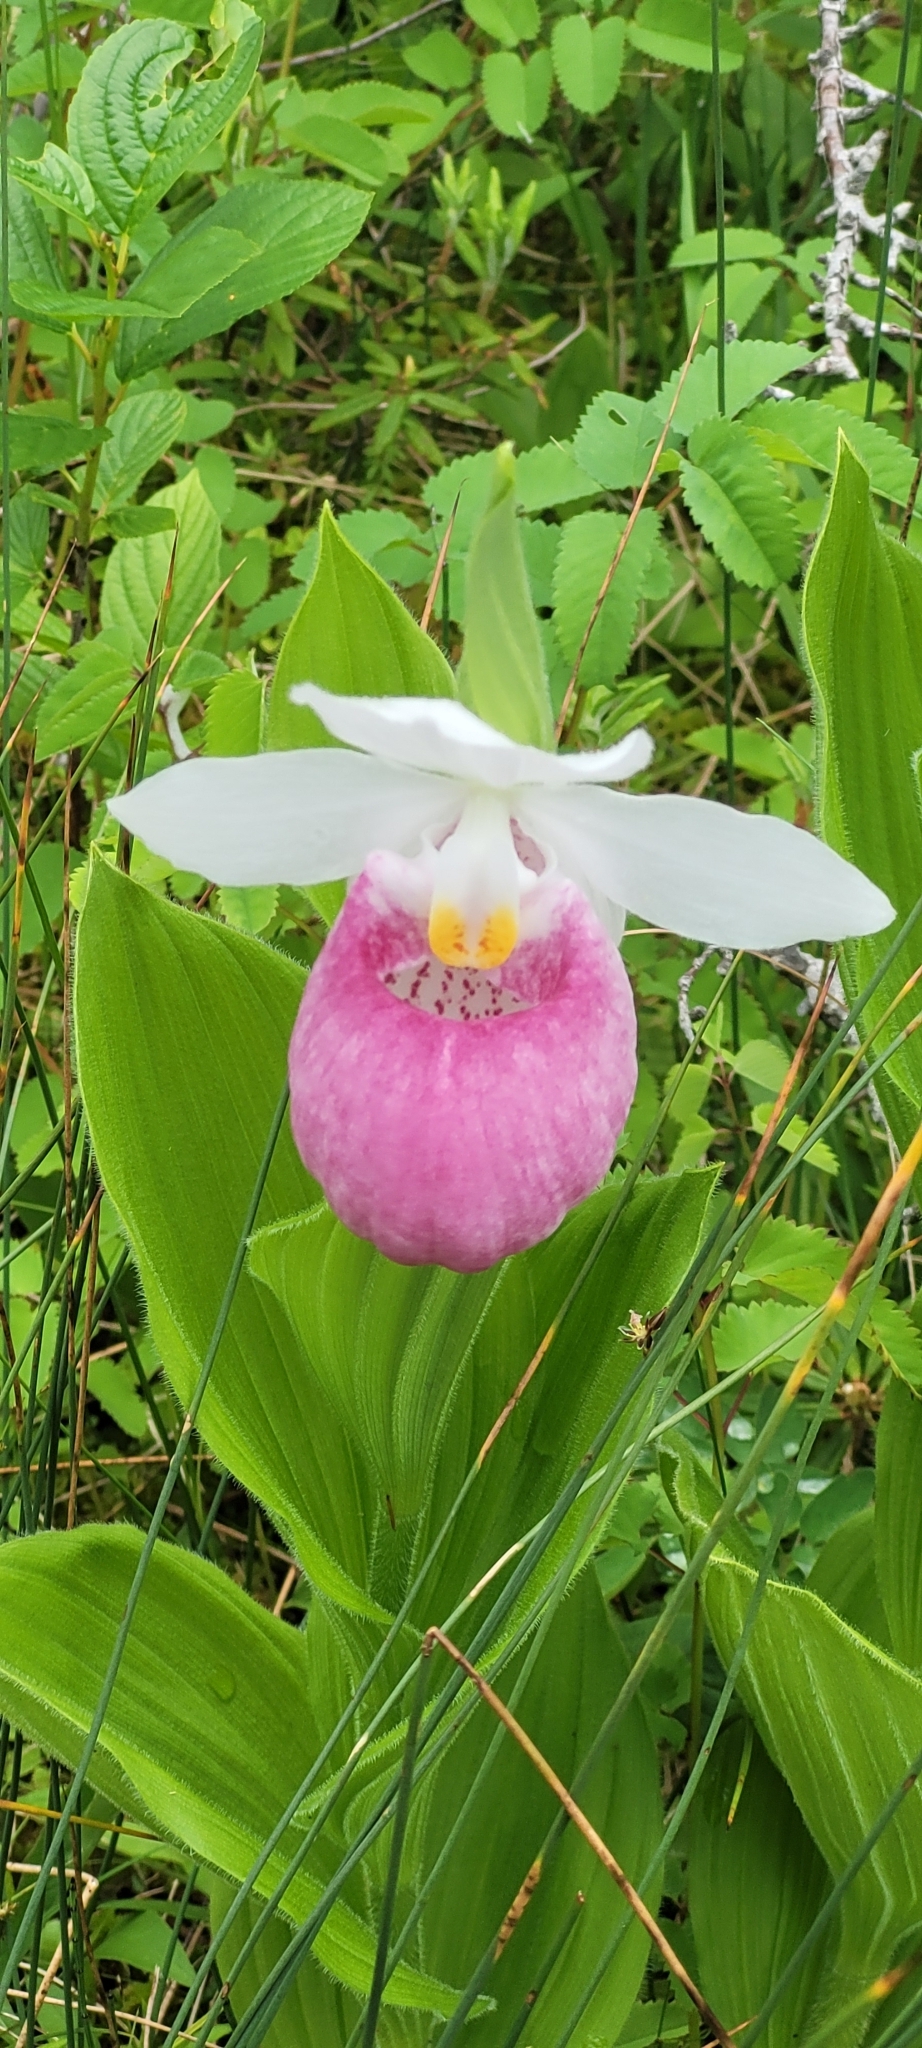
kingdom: Plantae
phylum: Tracheophyta
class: Liliopsida
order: Asparagales
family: Orchidaceae
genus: Cypripedium
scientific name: Cypripedium reginae
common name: Queen lady's-slipper
